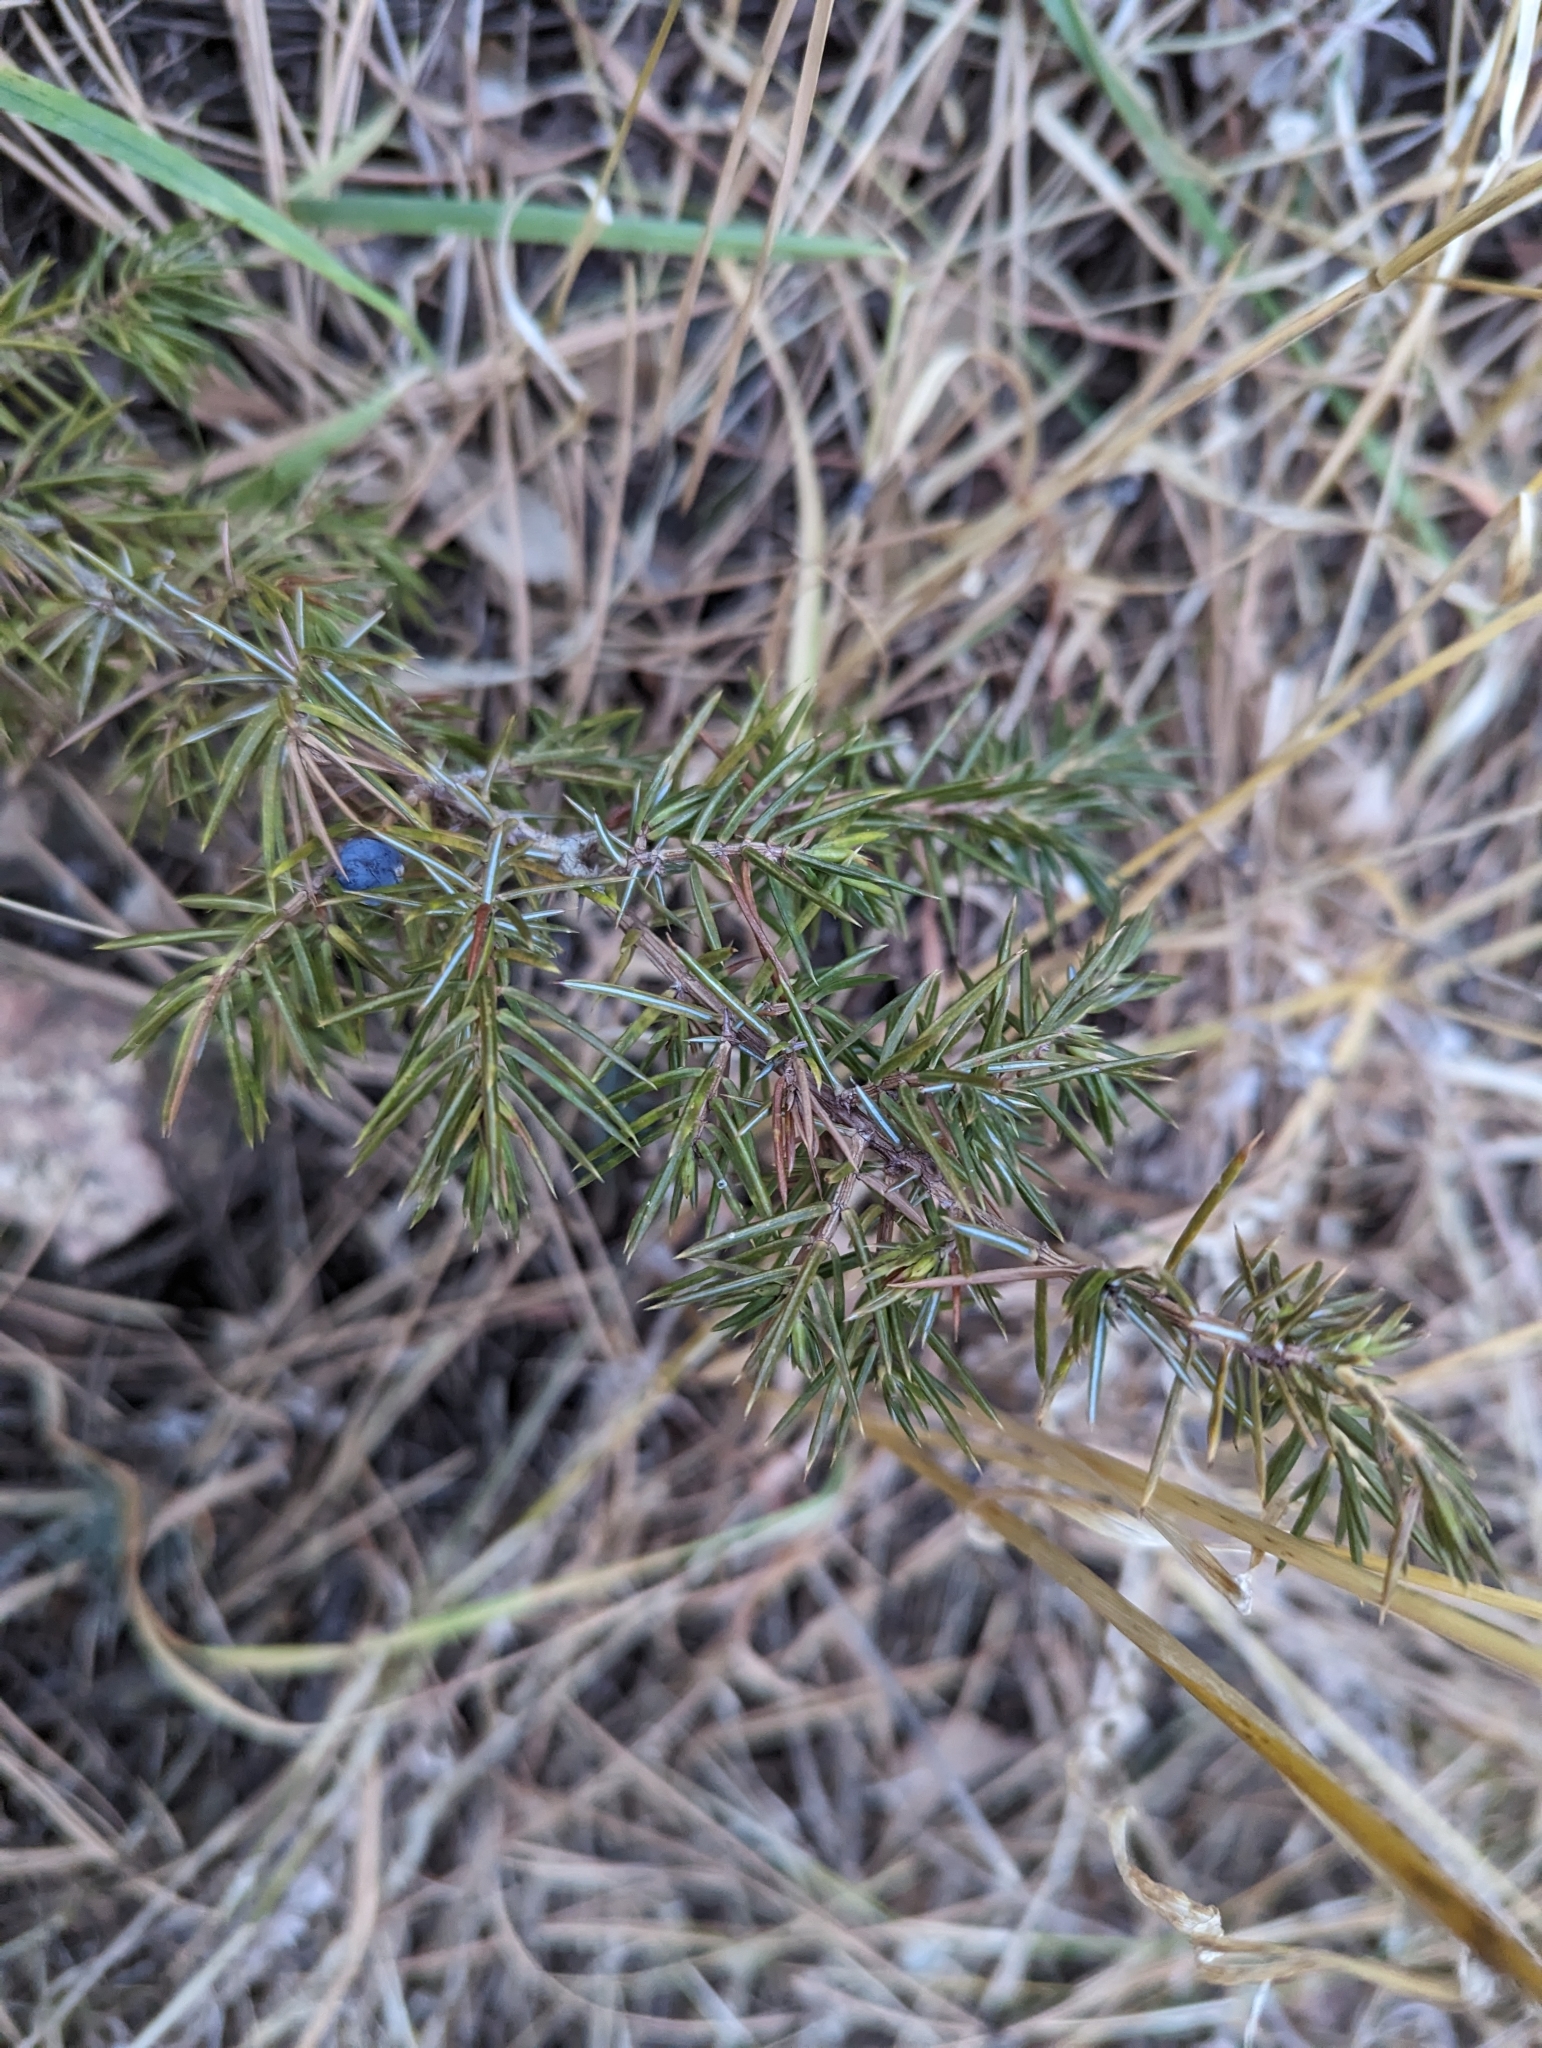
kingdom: Plantae
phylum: Tracheophyta
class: Pinopsida
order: Pinales
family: Cupressaceae
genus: Juniperus
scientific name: Juniperus communis
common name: Common juniper
